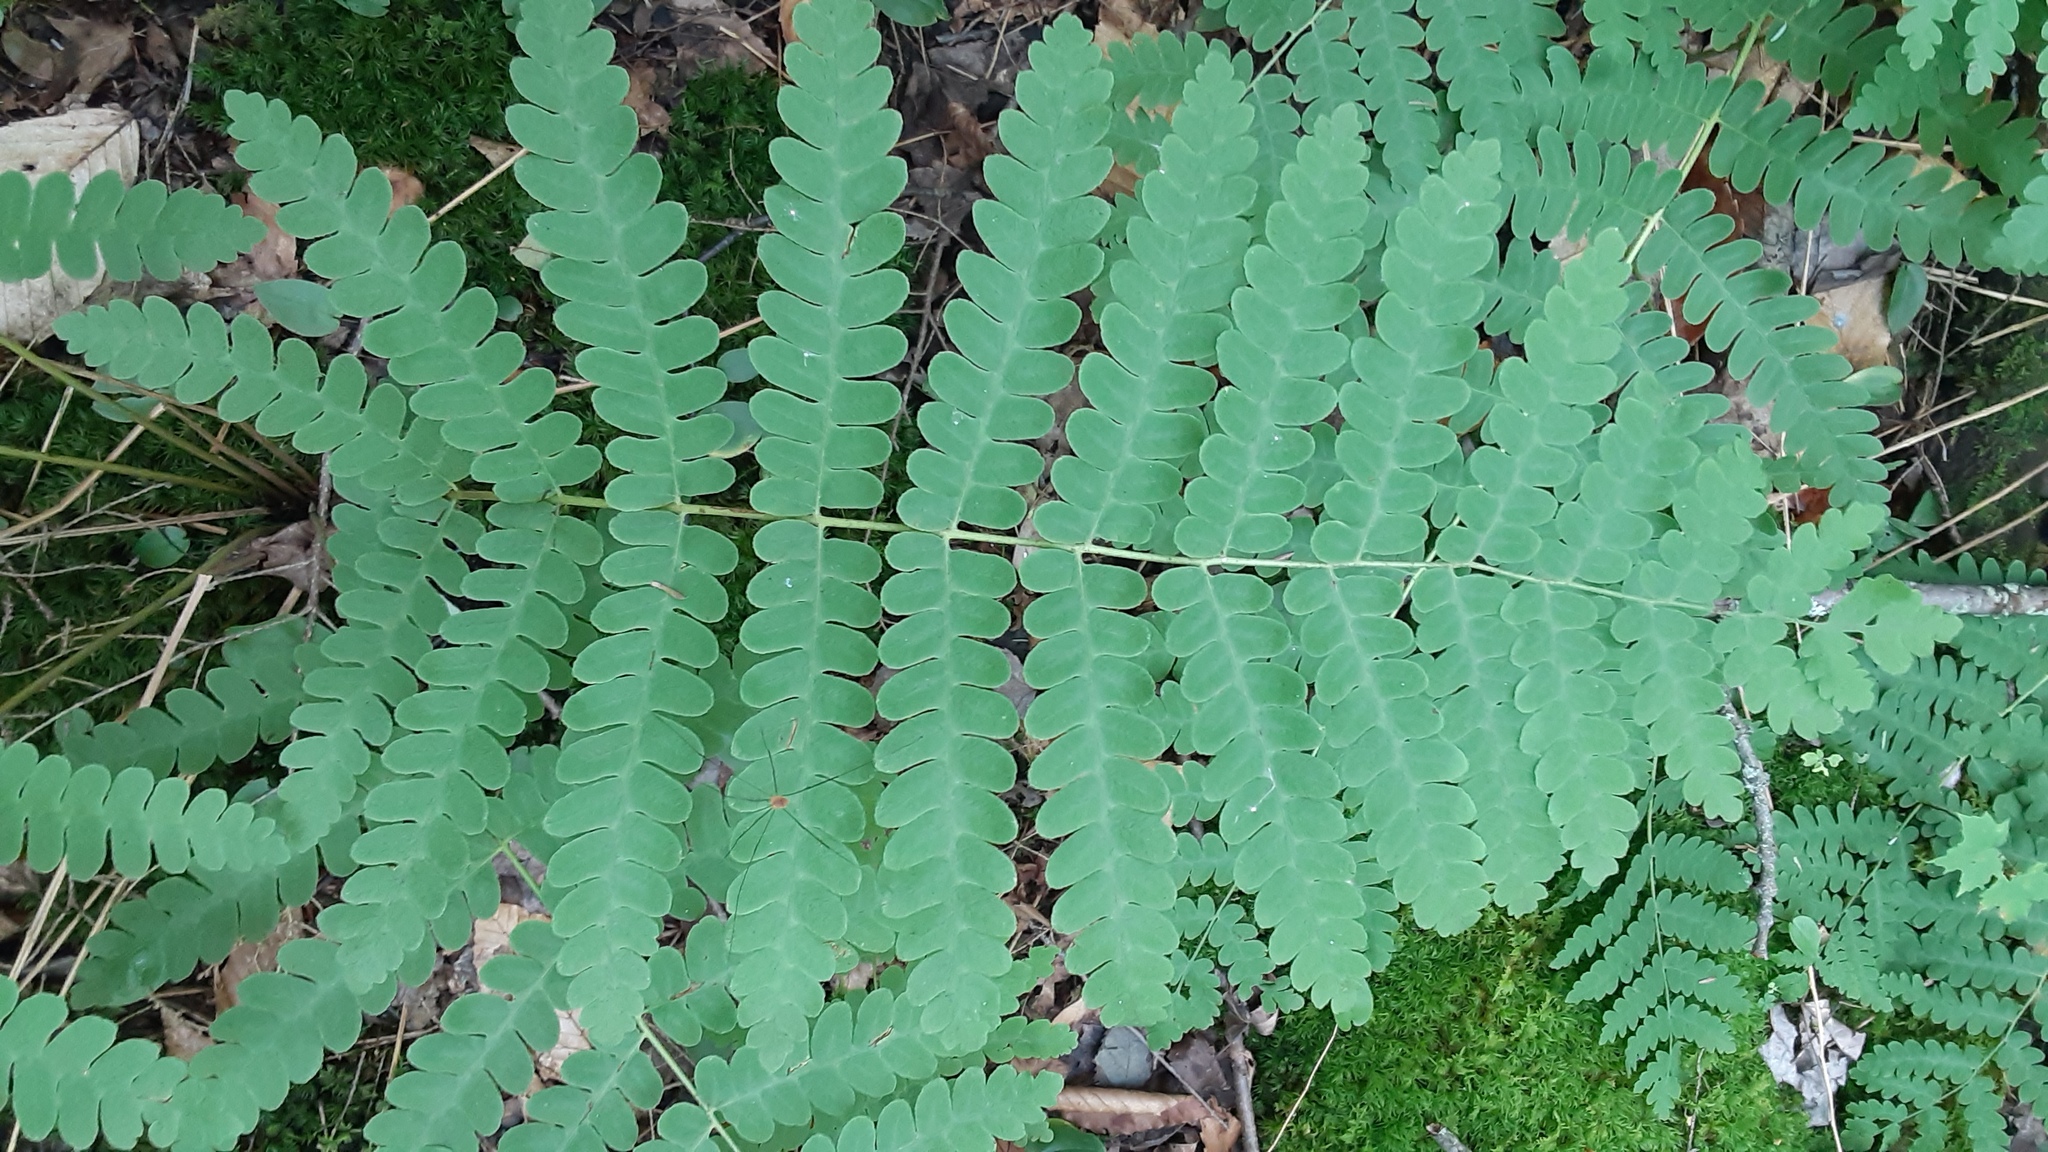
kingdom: Plantae
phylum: Tracheophyta
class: Polypodiopsida
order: Osmundales
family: Osmundaceae
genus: Claytosmunda
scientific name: Claytosmunda claytoniana
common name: Clayton's fern
